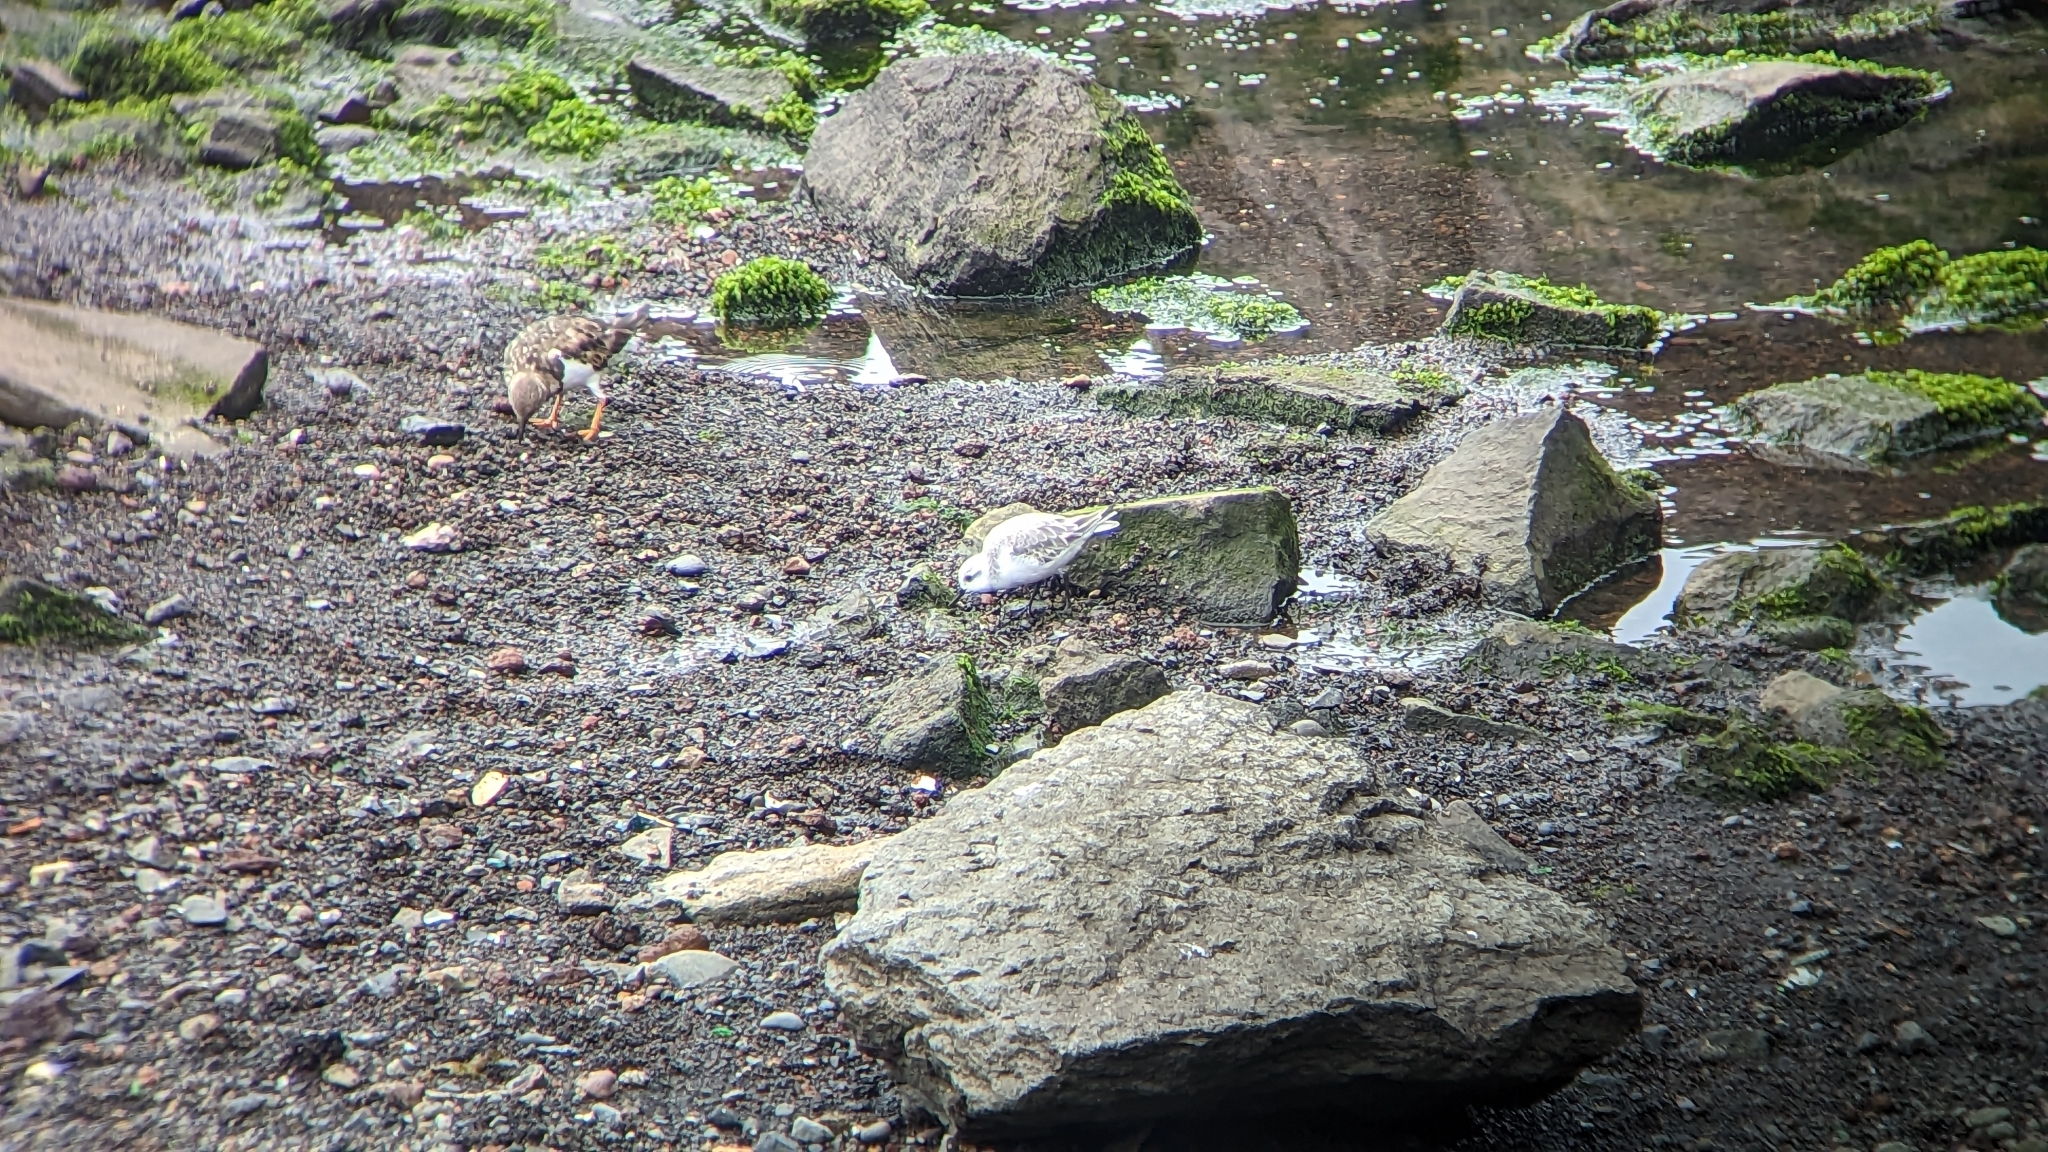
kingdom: Animalia
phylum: Chordata
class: Aves
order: Charadriiformes
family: Scolopacidae
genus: Calidris
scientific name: Calidris alba
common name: Sanderling
